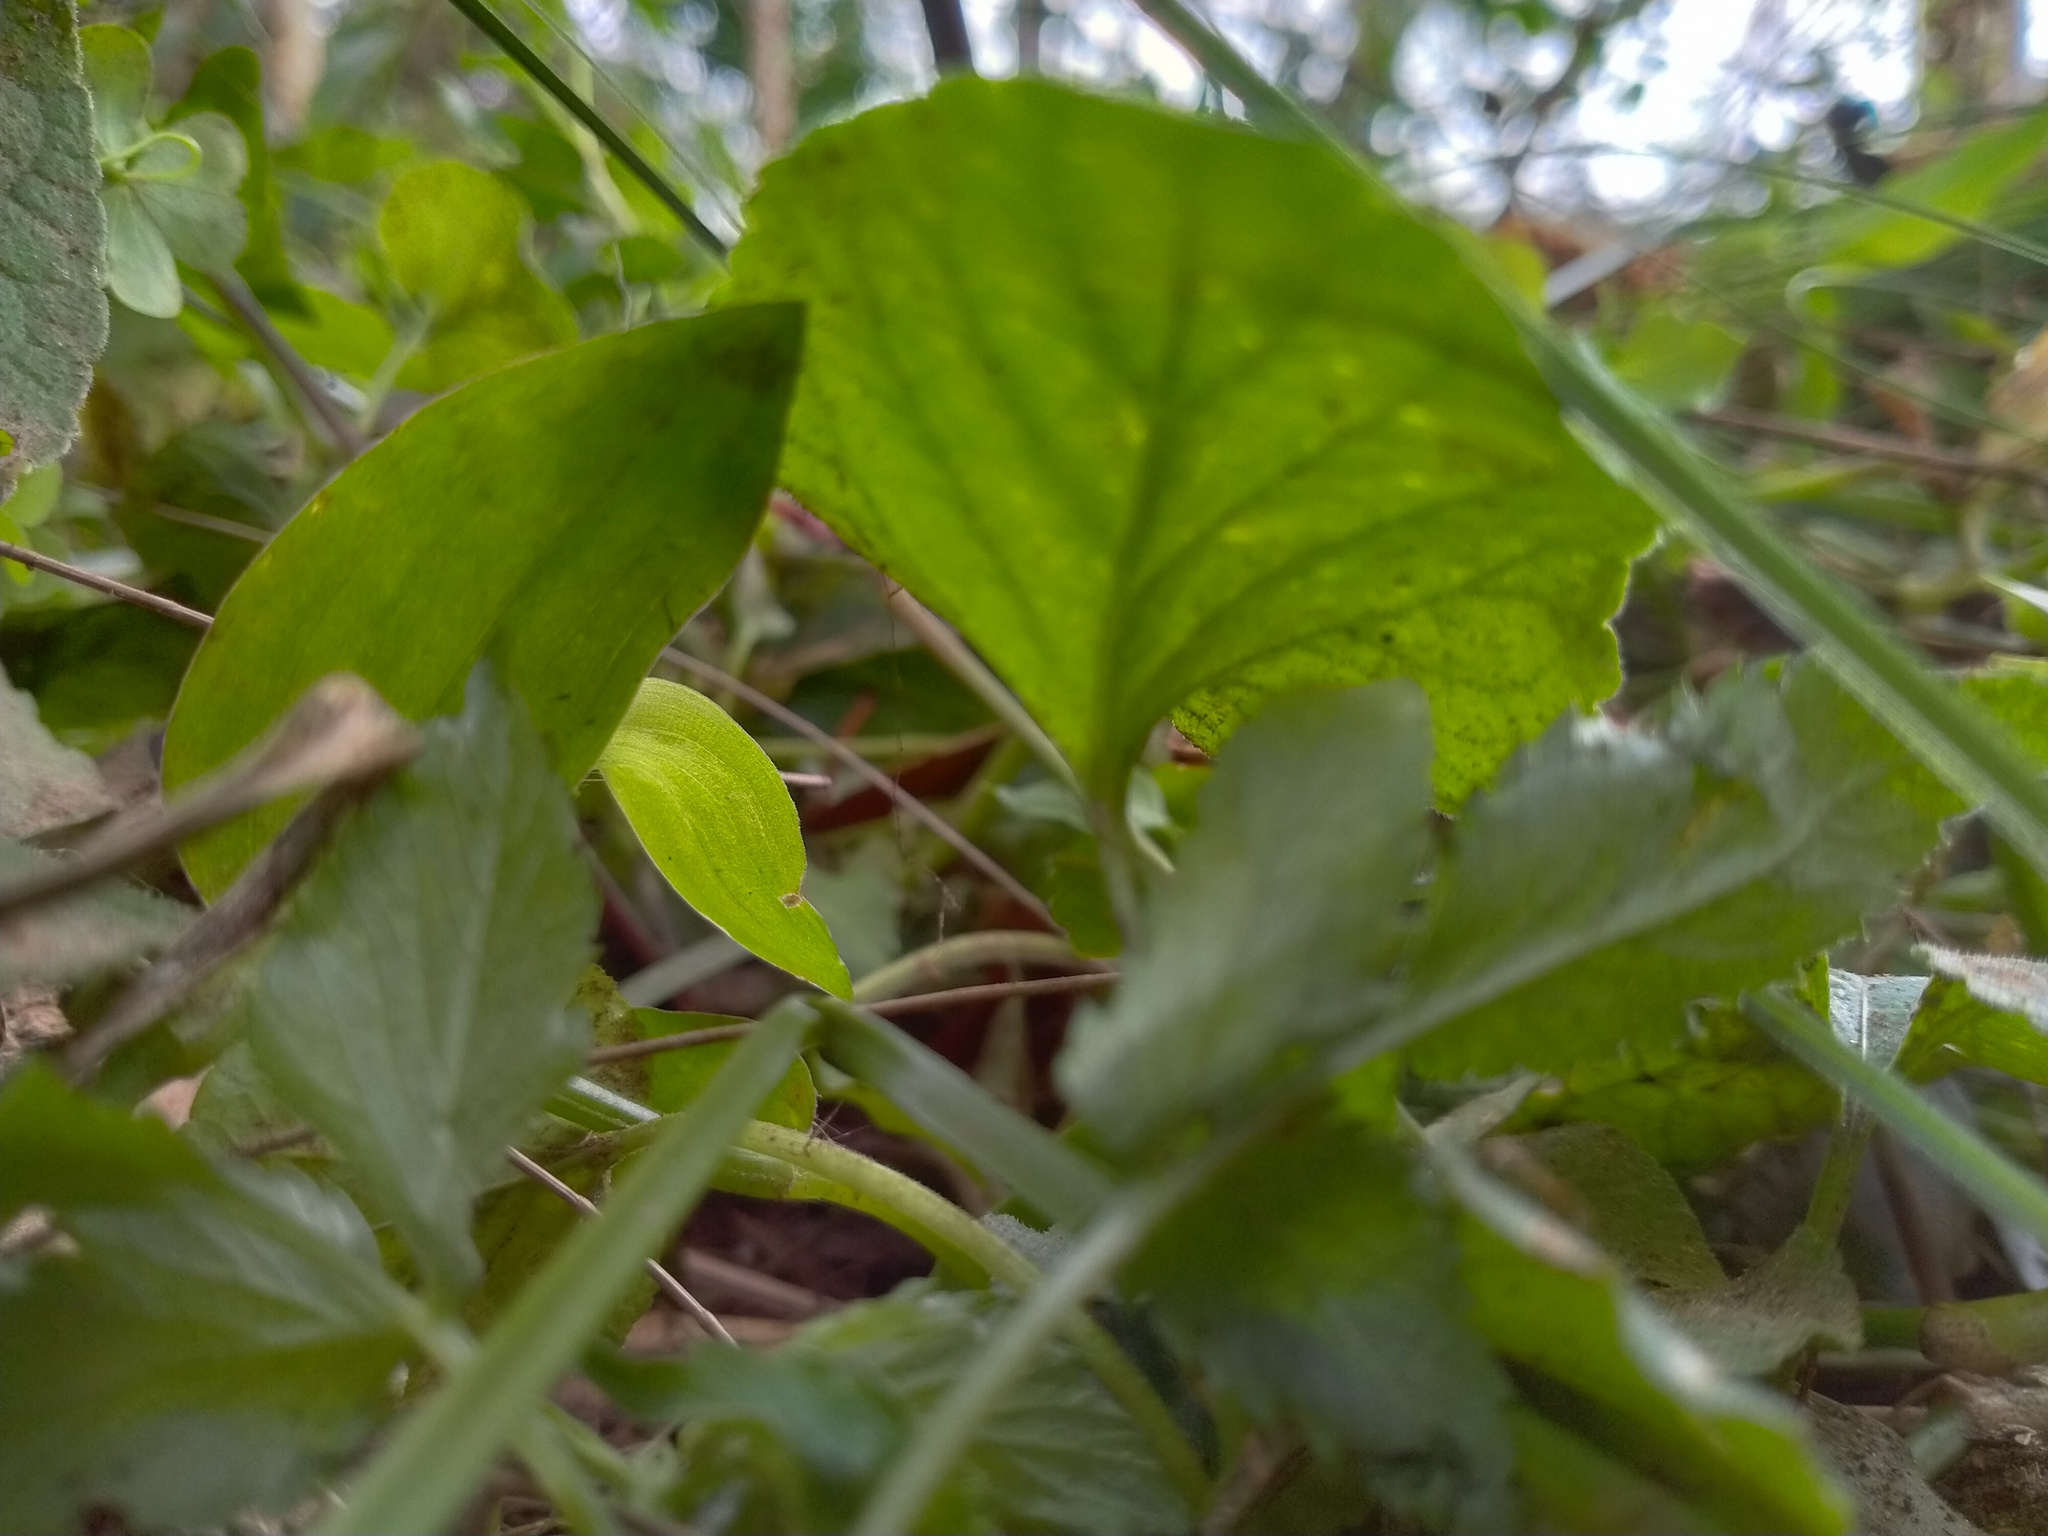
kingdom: Plantae
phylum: Tracheophyta
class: Magnoliopsida
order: Malpighiales
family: Violaceae
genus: Viola
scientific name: Viola odorata
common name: Sweet violet
